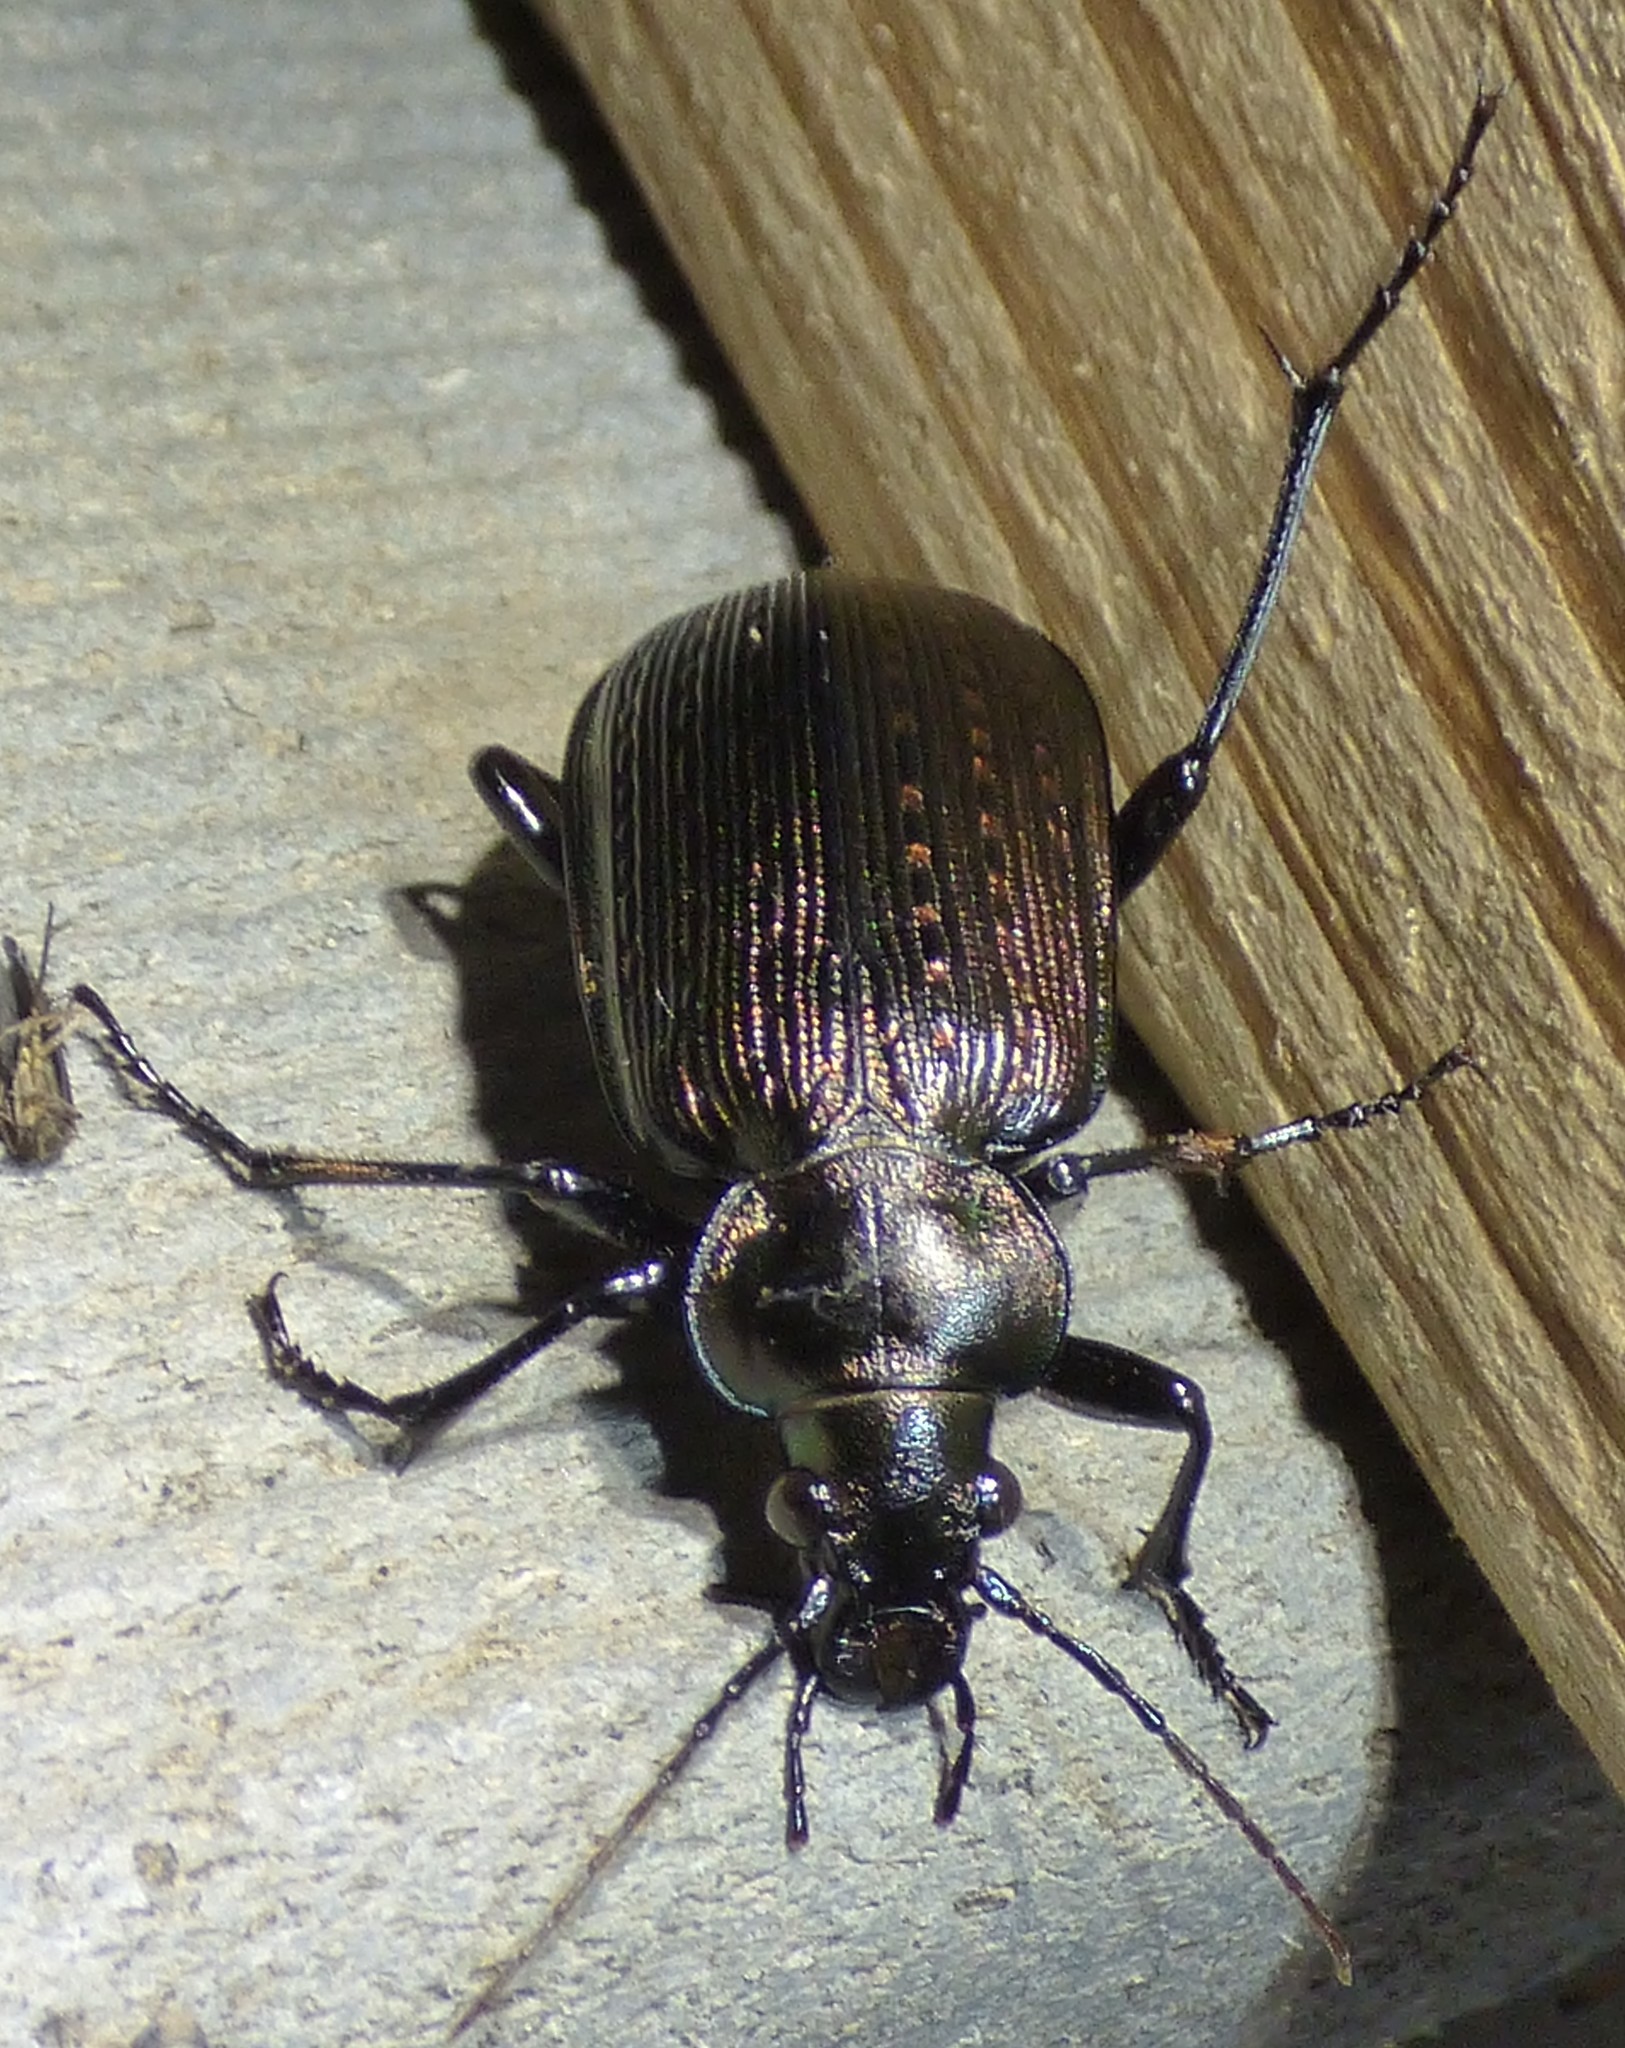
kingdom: Animalia
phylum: Arthropoda
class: Insecta
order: Coleoptera
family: Carabidae
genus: Calosoma
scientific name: Calosoma sayi
